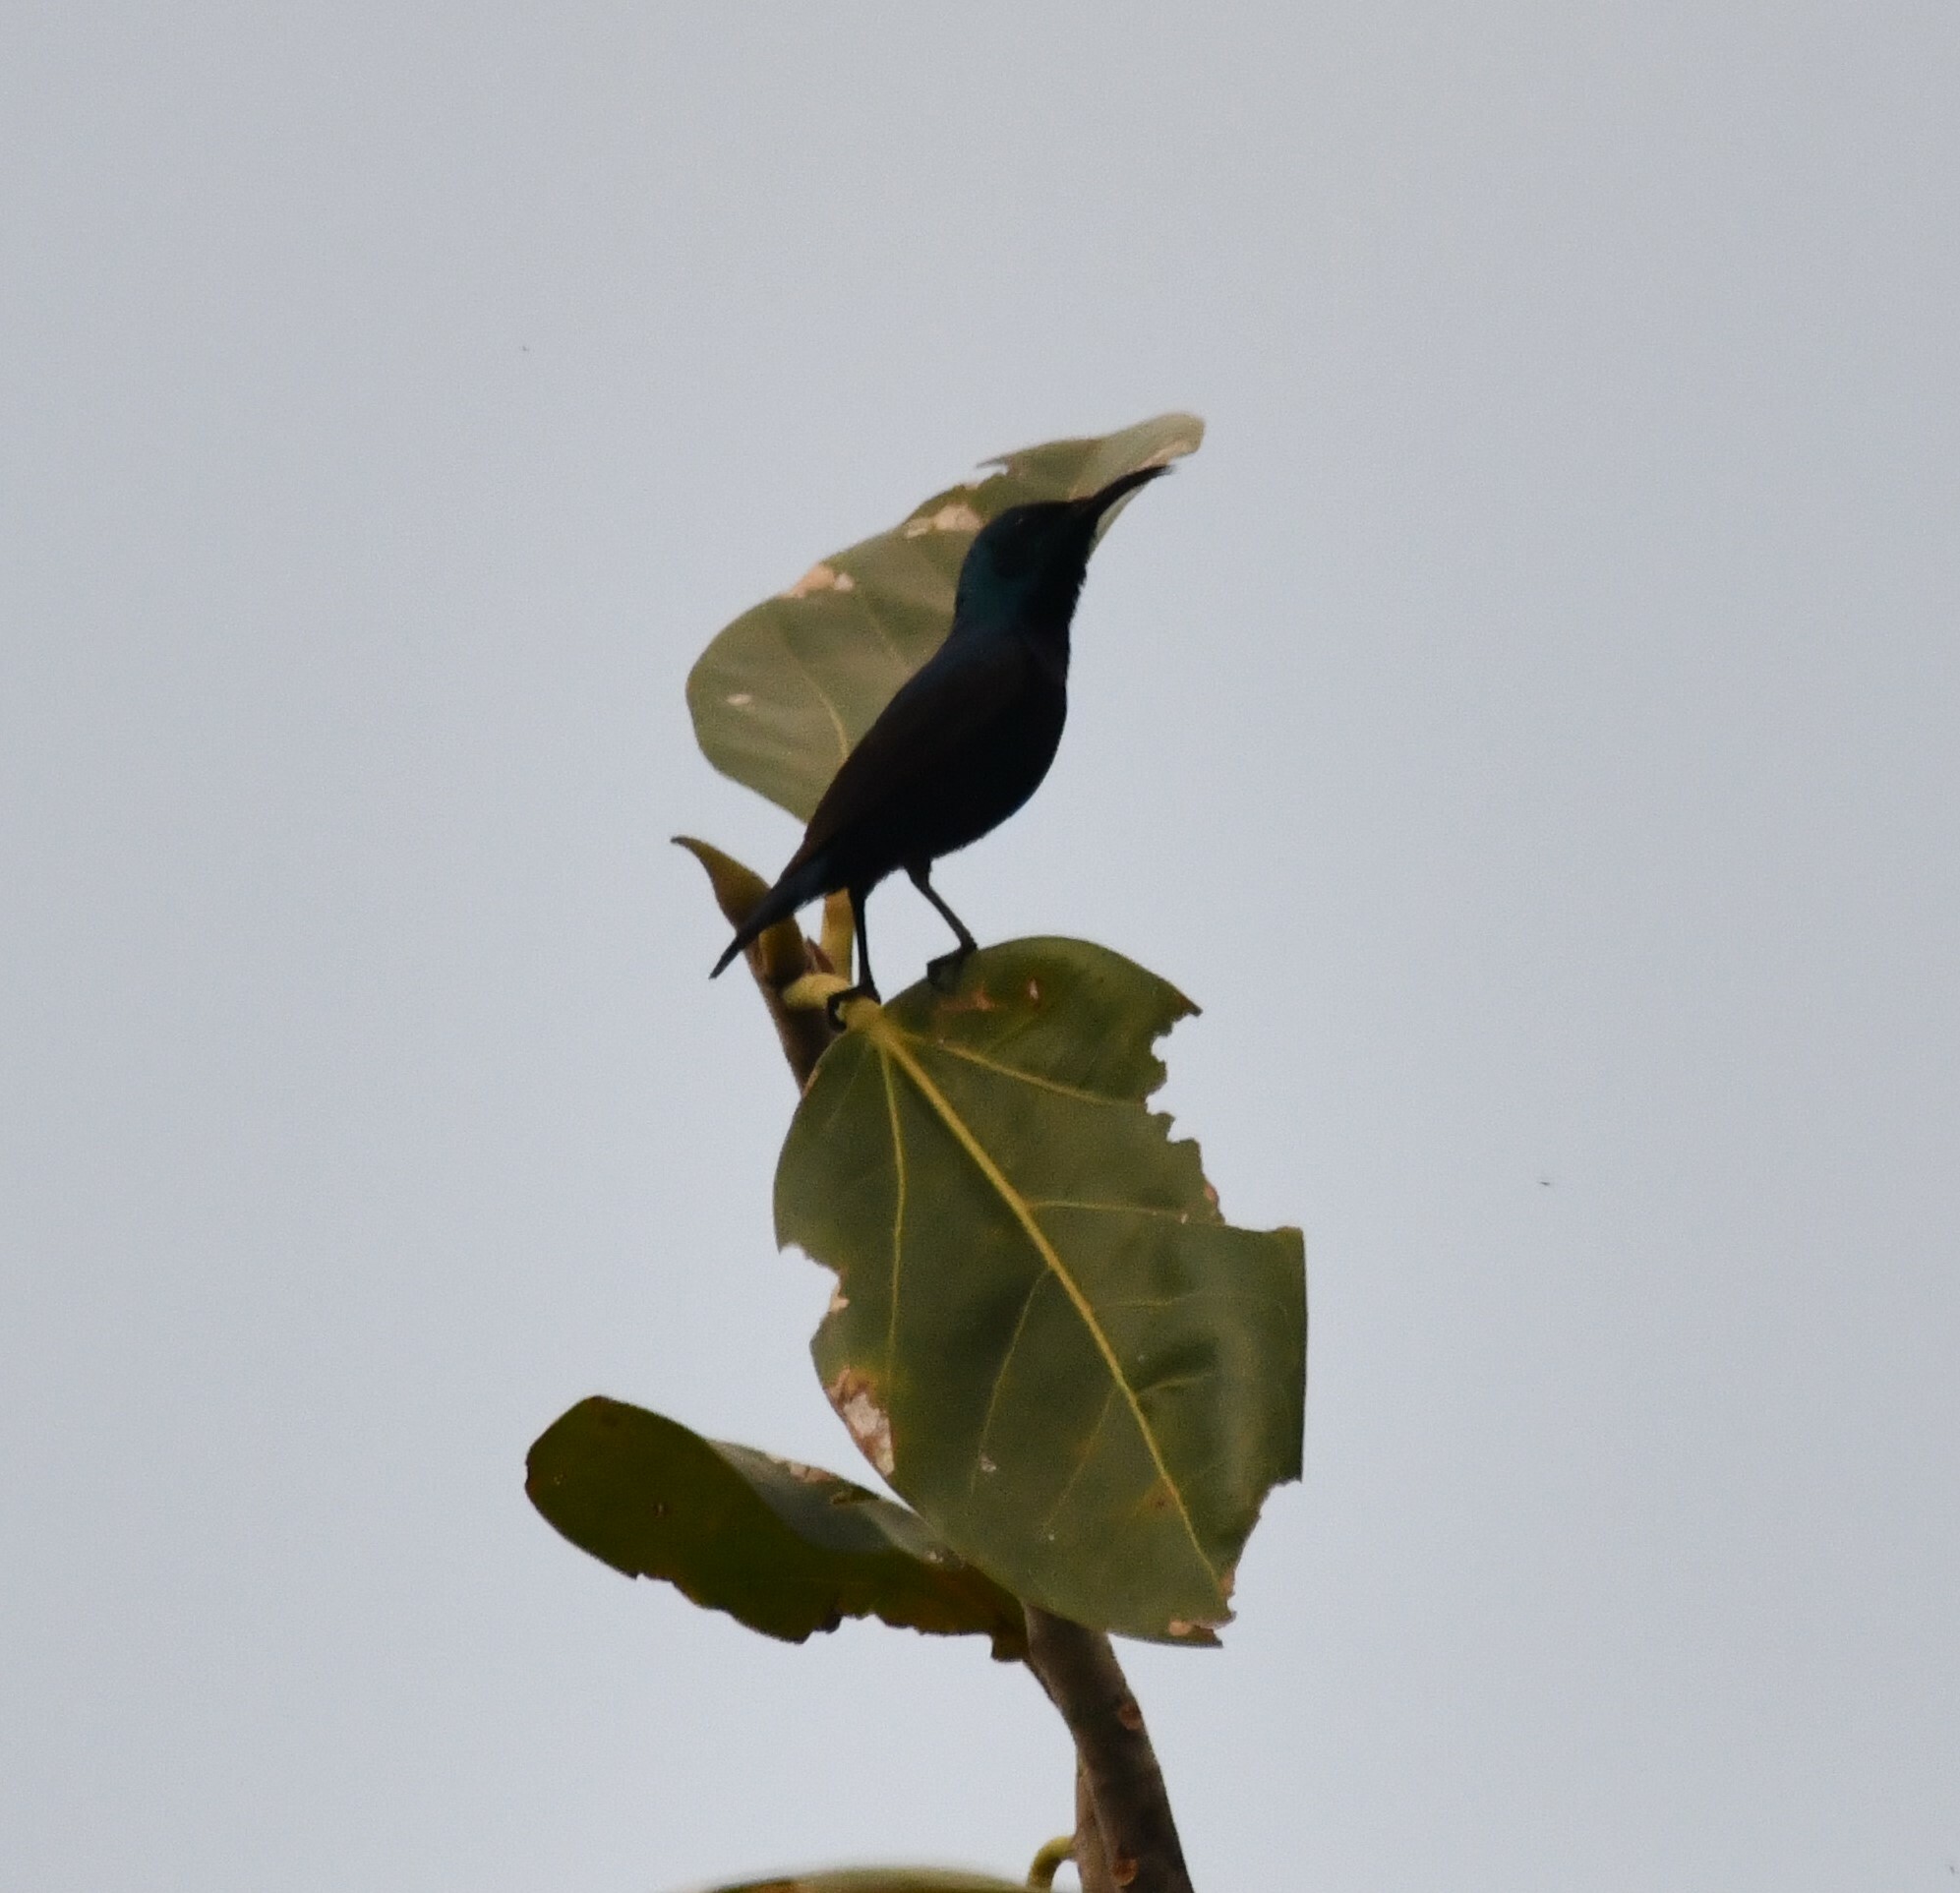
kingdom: Animalia
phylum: Chordata
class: Aves
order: Passeriformes
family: Nectariniidae
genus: Cinnyris
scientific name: Cinnyris asiaticus
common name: Purple sunbird
